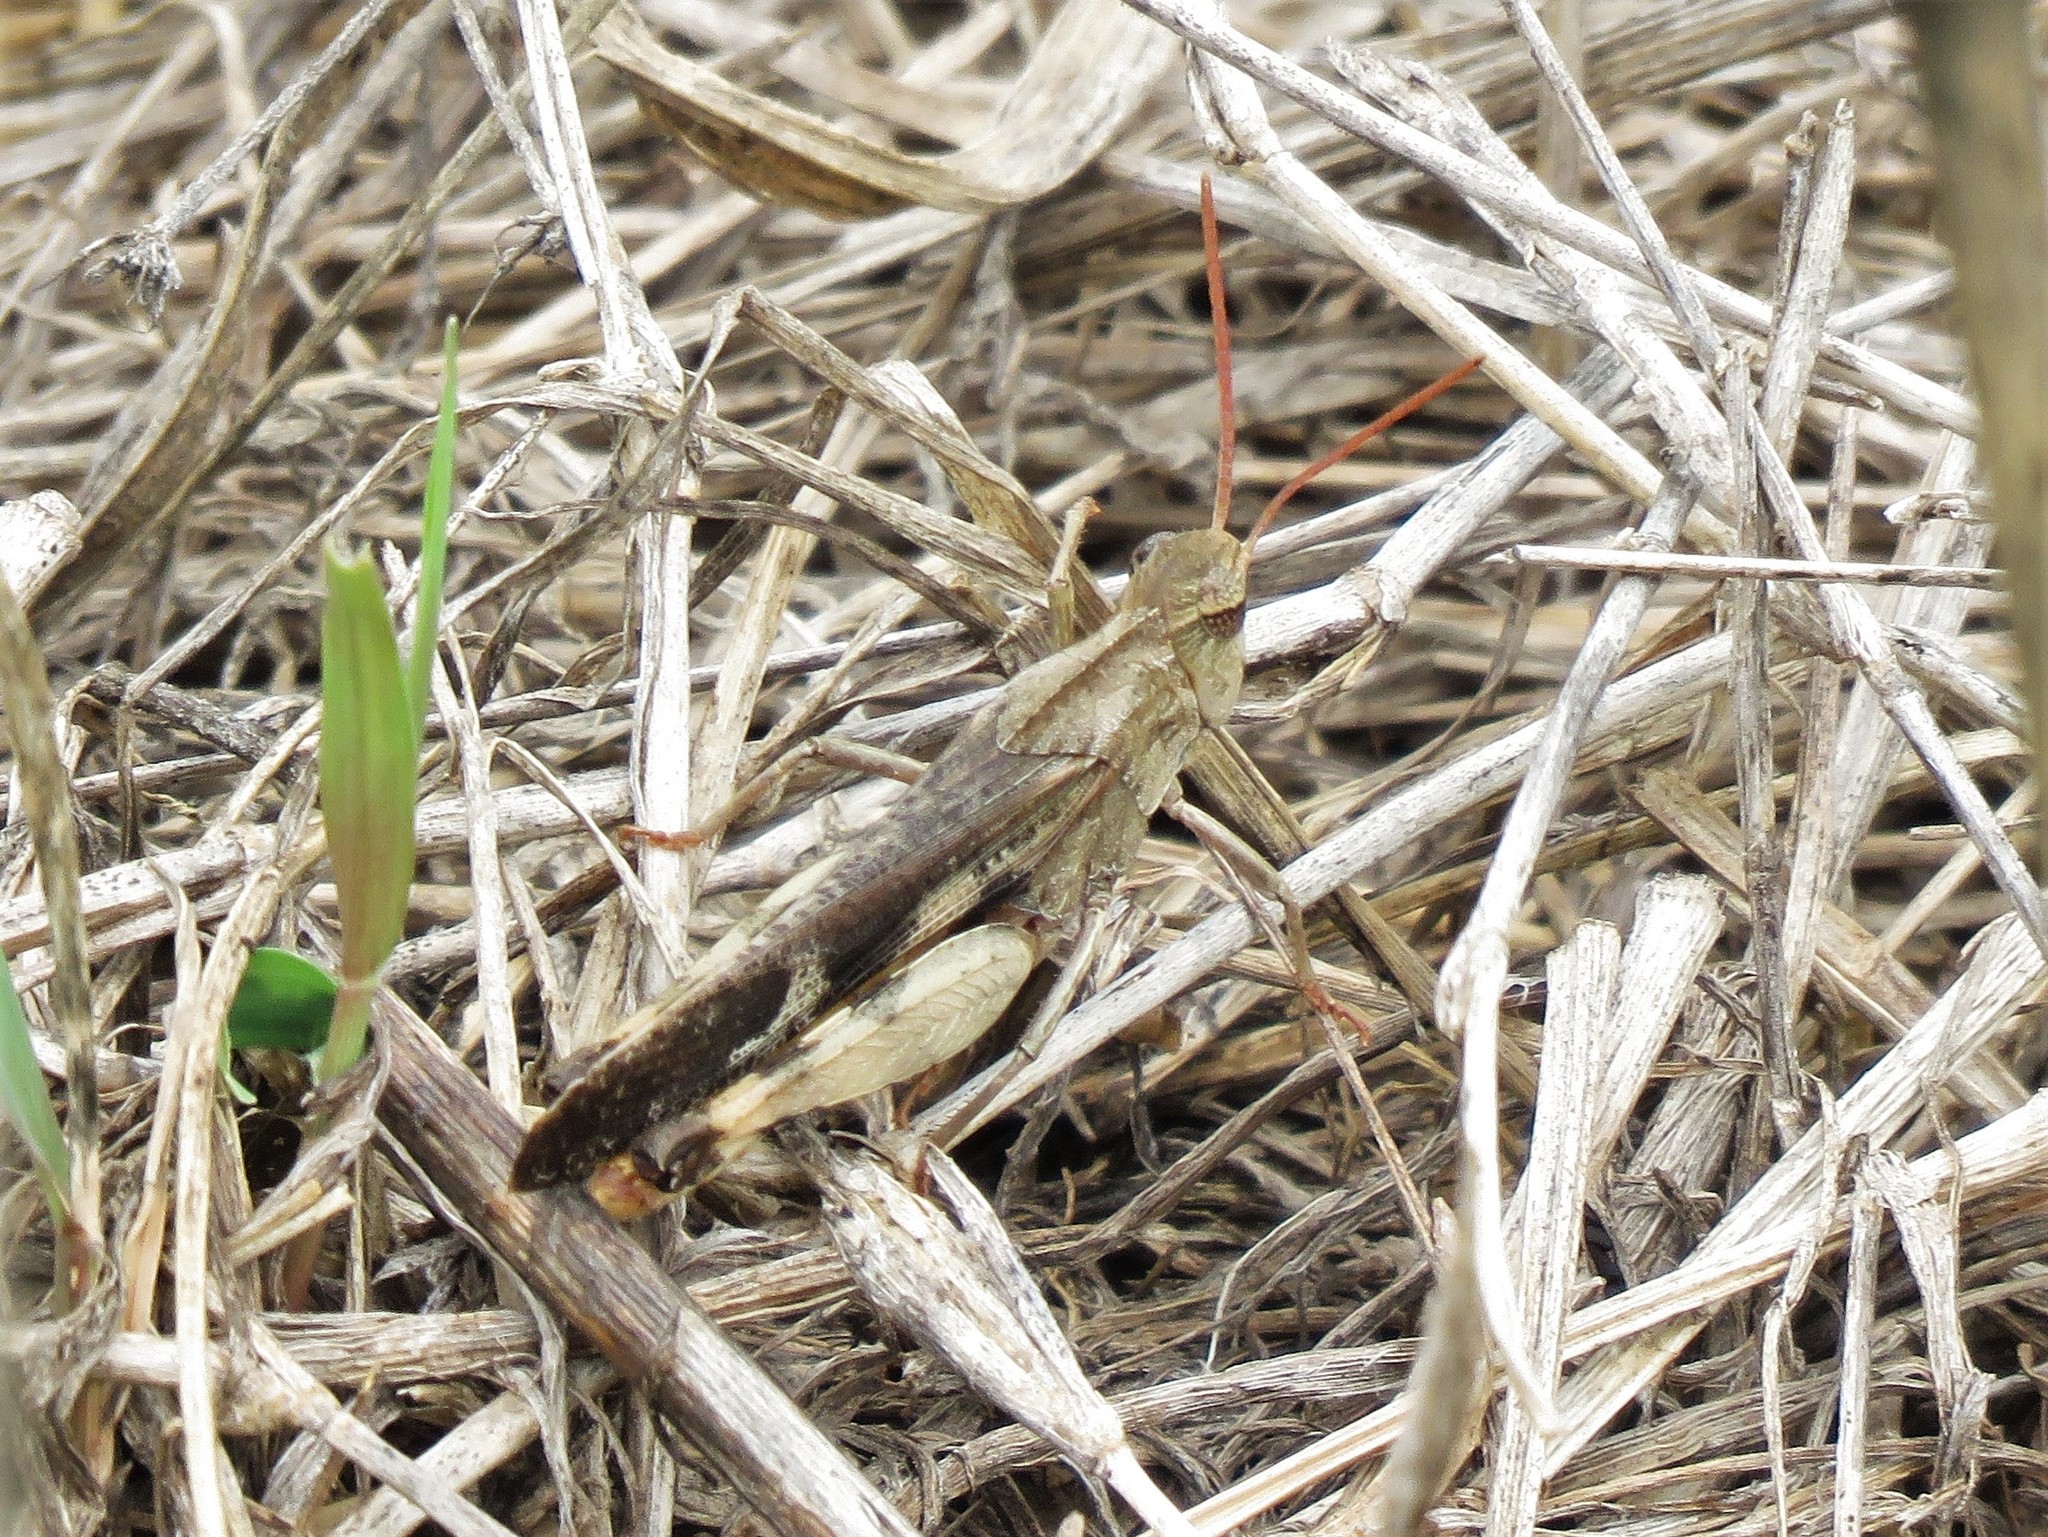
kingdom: Animalia
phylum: Arthropoda
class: Insecta
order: Orthoptera
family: Acrididae
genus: Chortophaga
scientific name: Chortophaga viridifasciata
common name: Green-striped grasshopper
